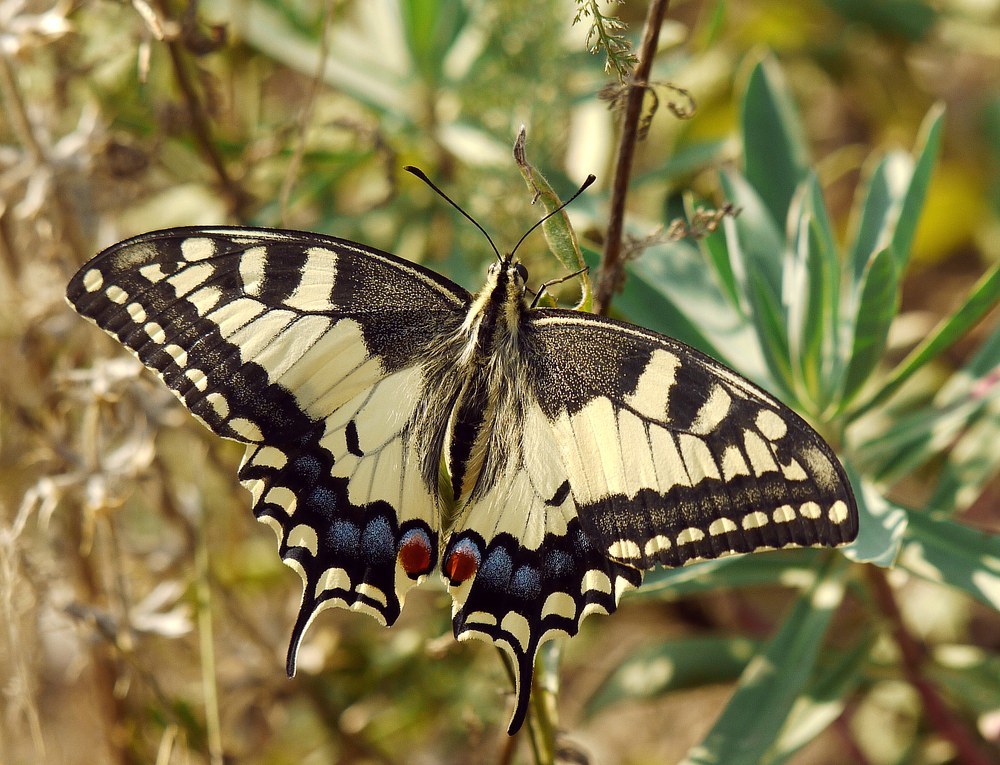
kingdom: Animalia
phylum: Arthropoda
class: Insecta
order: Lepidoptera
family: Papilionidae
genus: Papilio
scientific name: Papilio machaon
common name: Swallowtail
